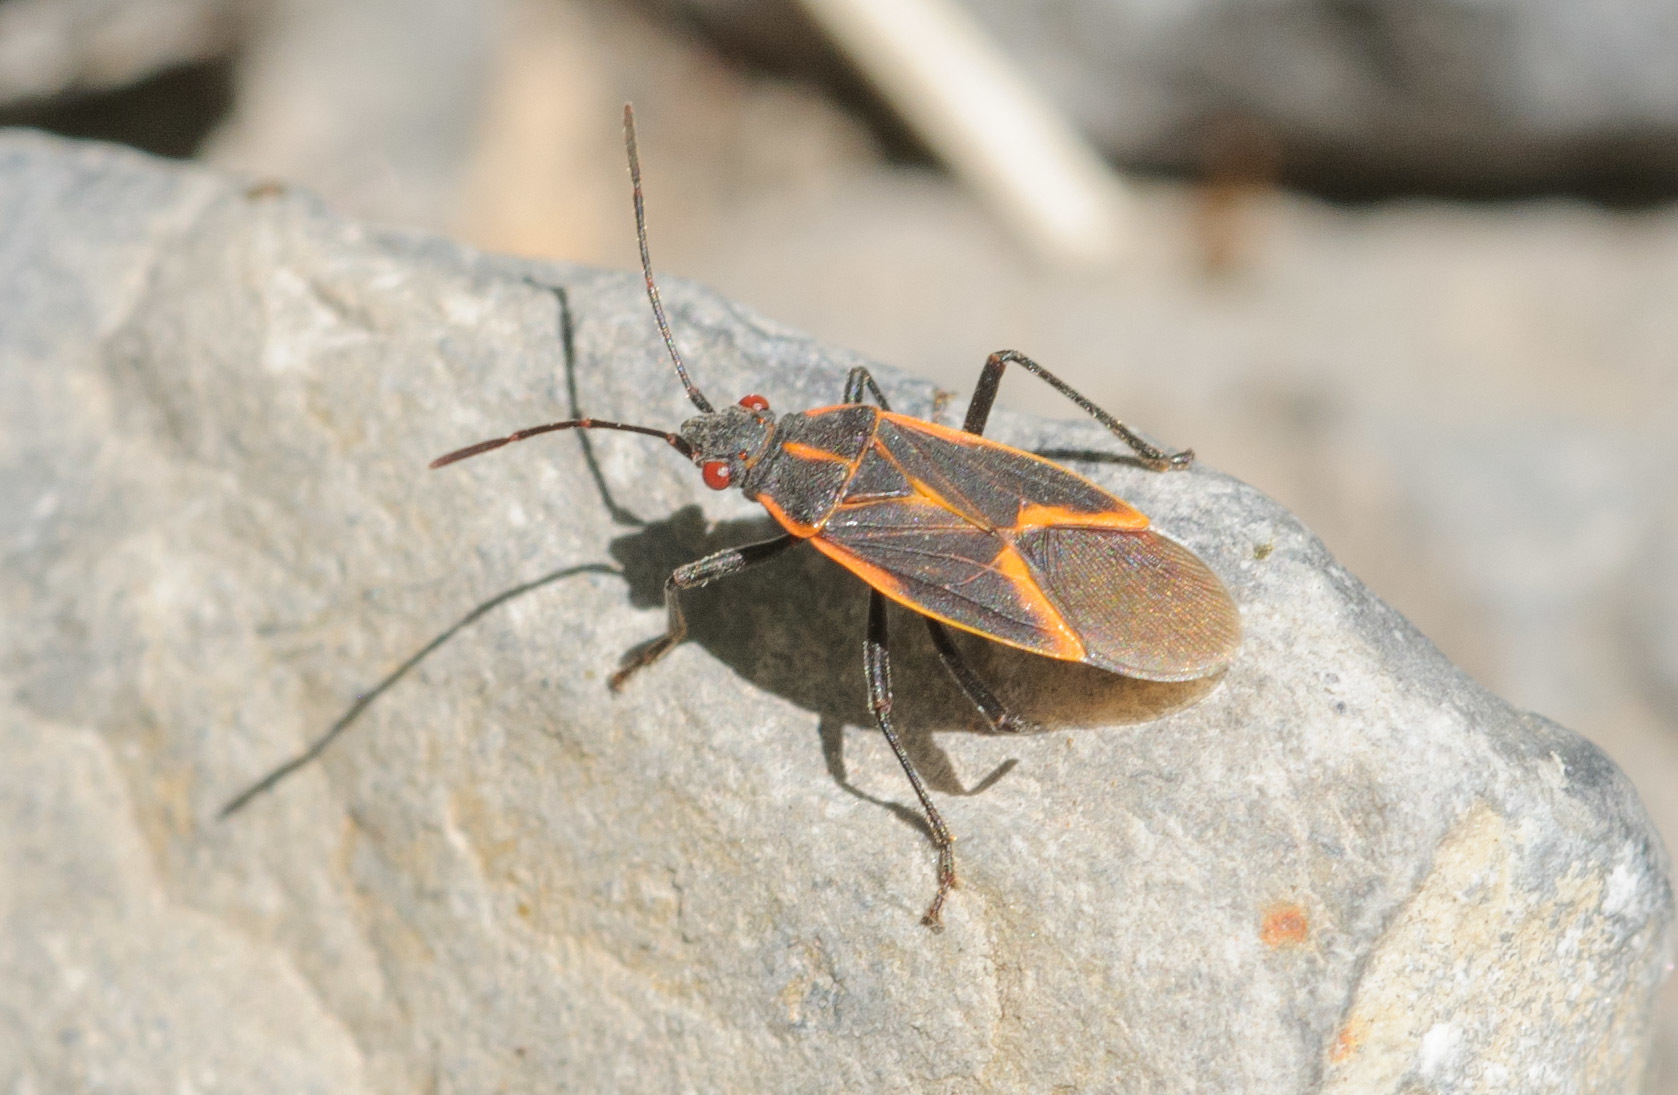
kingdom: Animalia
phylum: Arthropoda
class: Insecta
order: Hemiptera
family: Rhopalidae
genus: Boisea
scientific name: Boisea trivittata
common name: Boxelder bug
